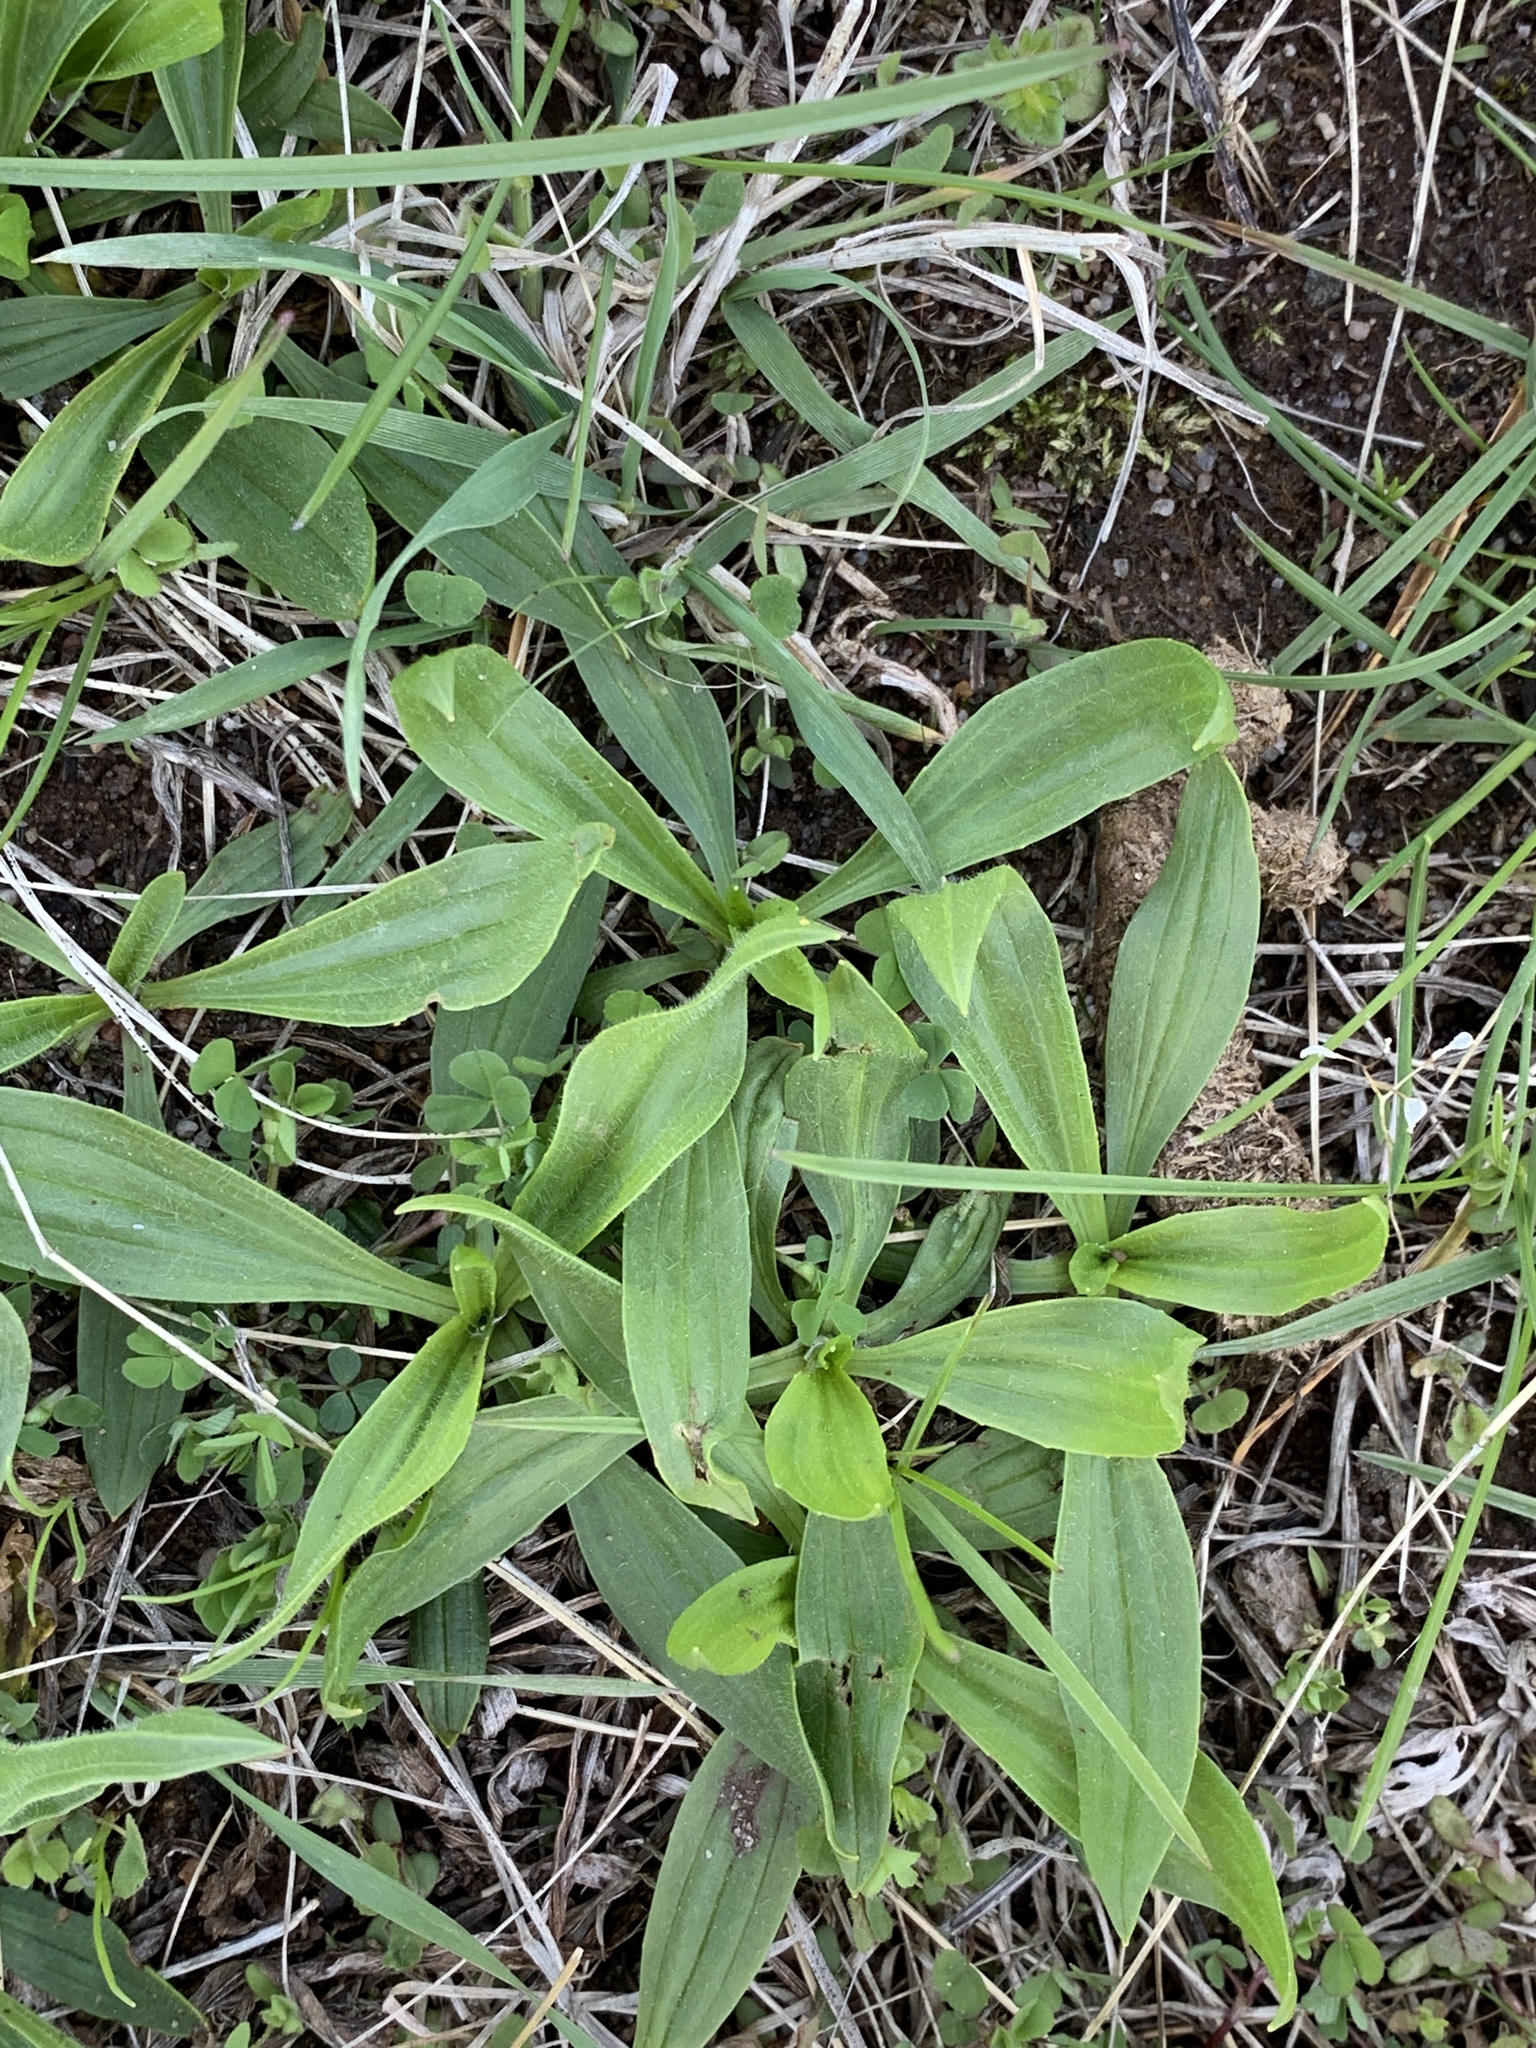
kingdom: Plantae
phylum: Tracheophyta
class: Magnoliopsida
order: Lamiales
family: Plantaginaceae
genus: Plantago
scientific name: Plantago lanceolata
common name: Ribwort plantain
